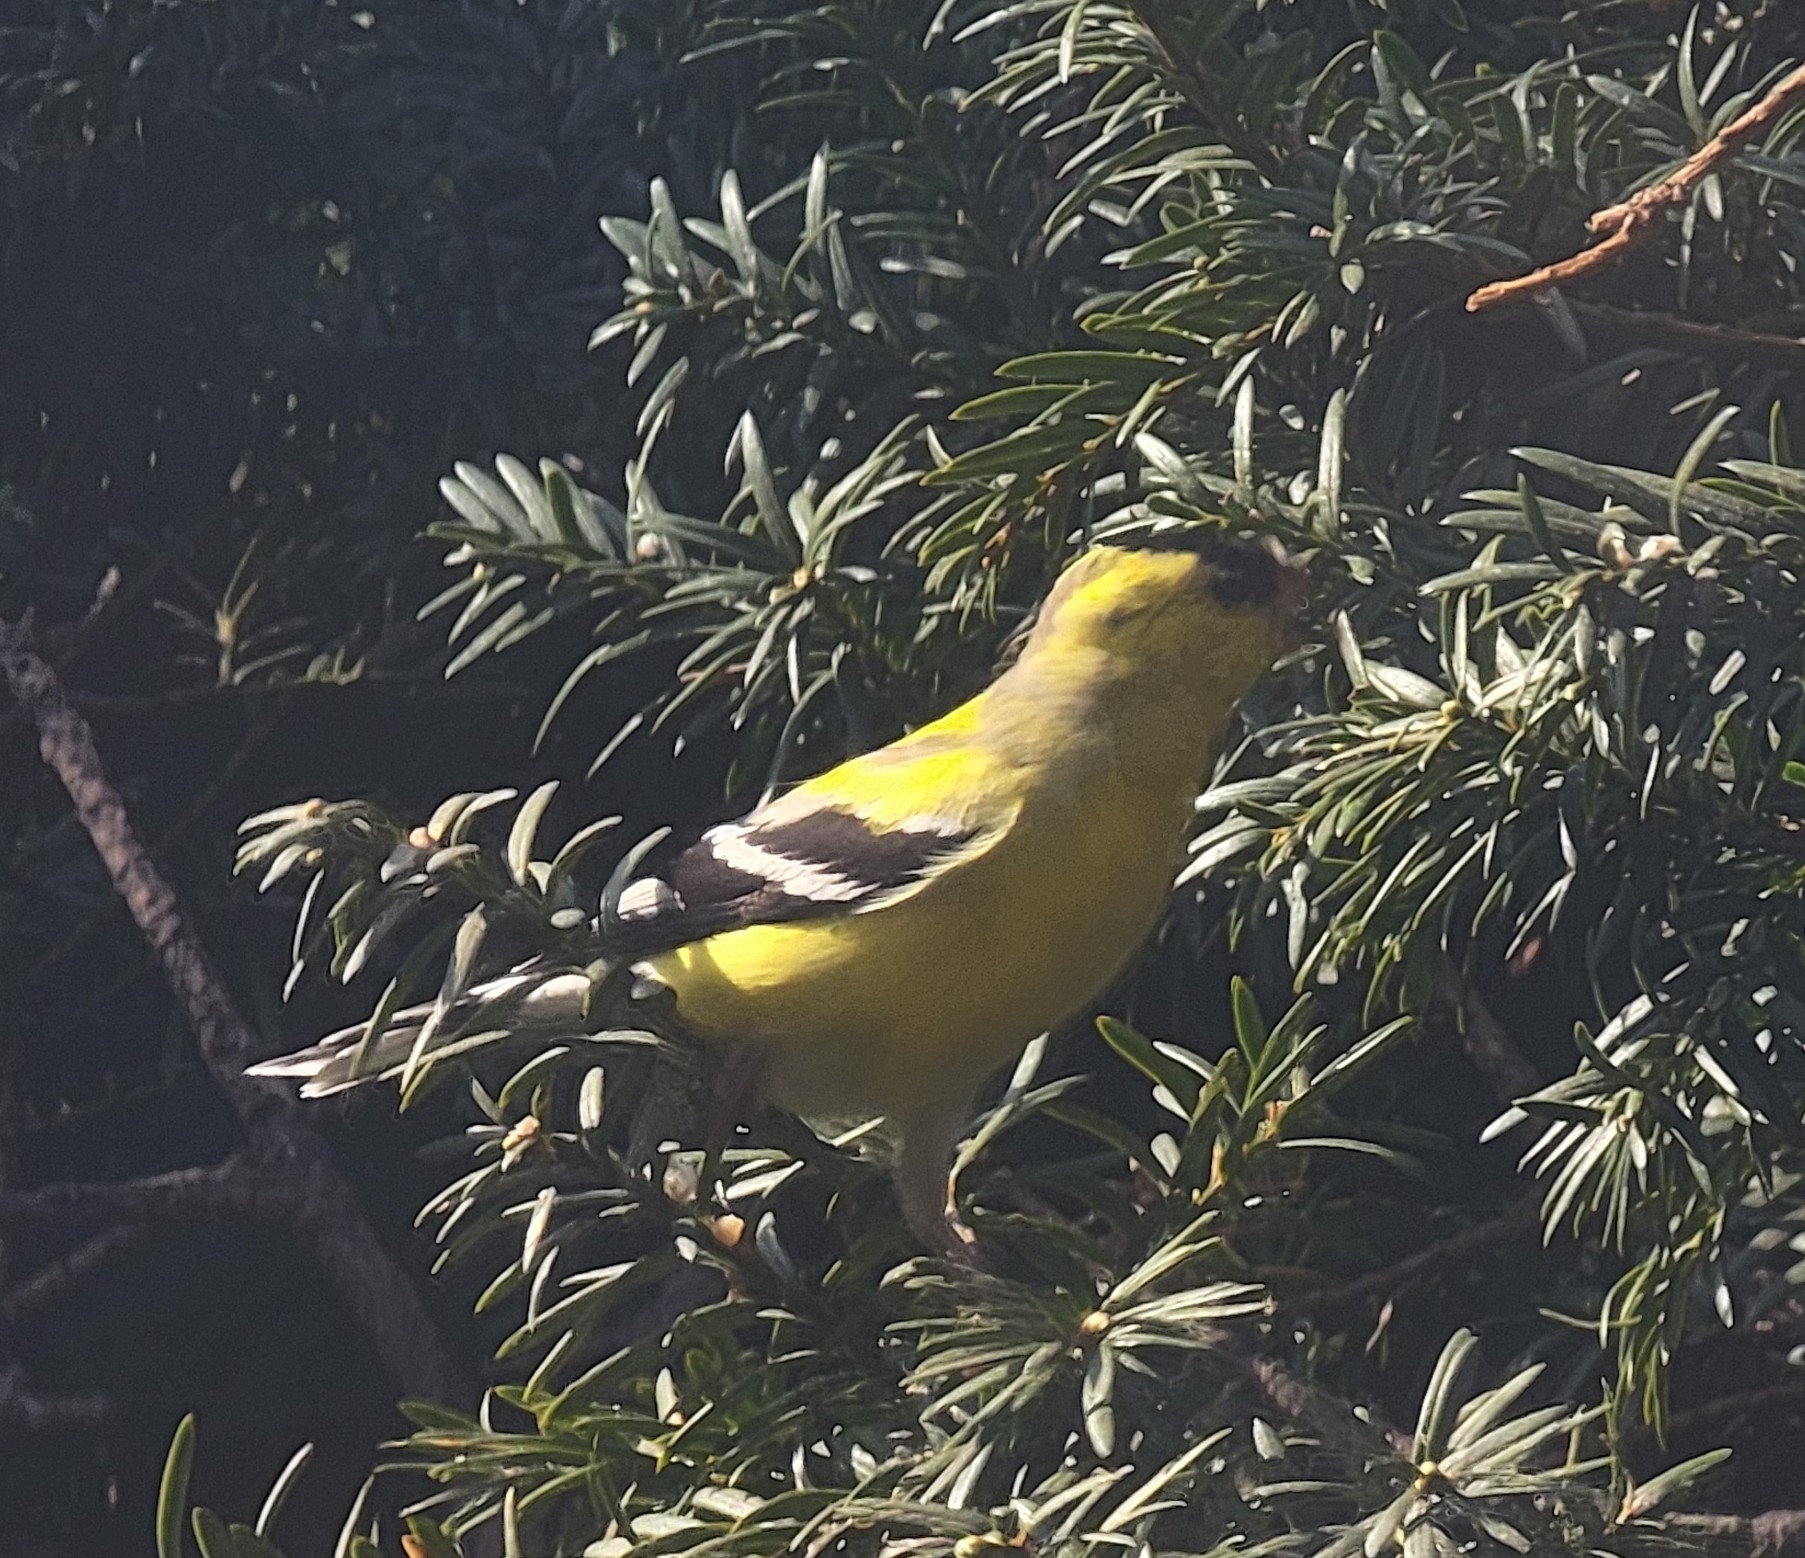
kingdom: Animalia
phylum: Chordata
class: Aves
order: Passeriformes
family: Fringillidae
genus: Spinus
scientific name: Spinus tristis
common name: American goldfinch
